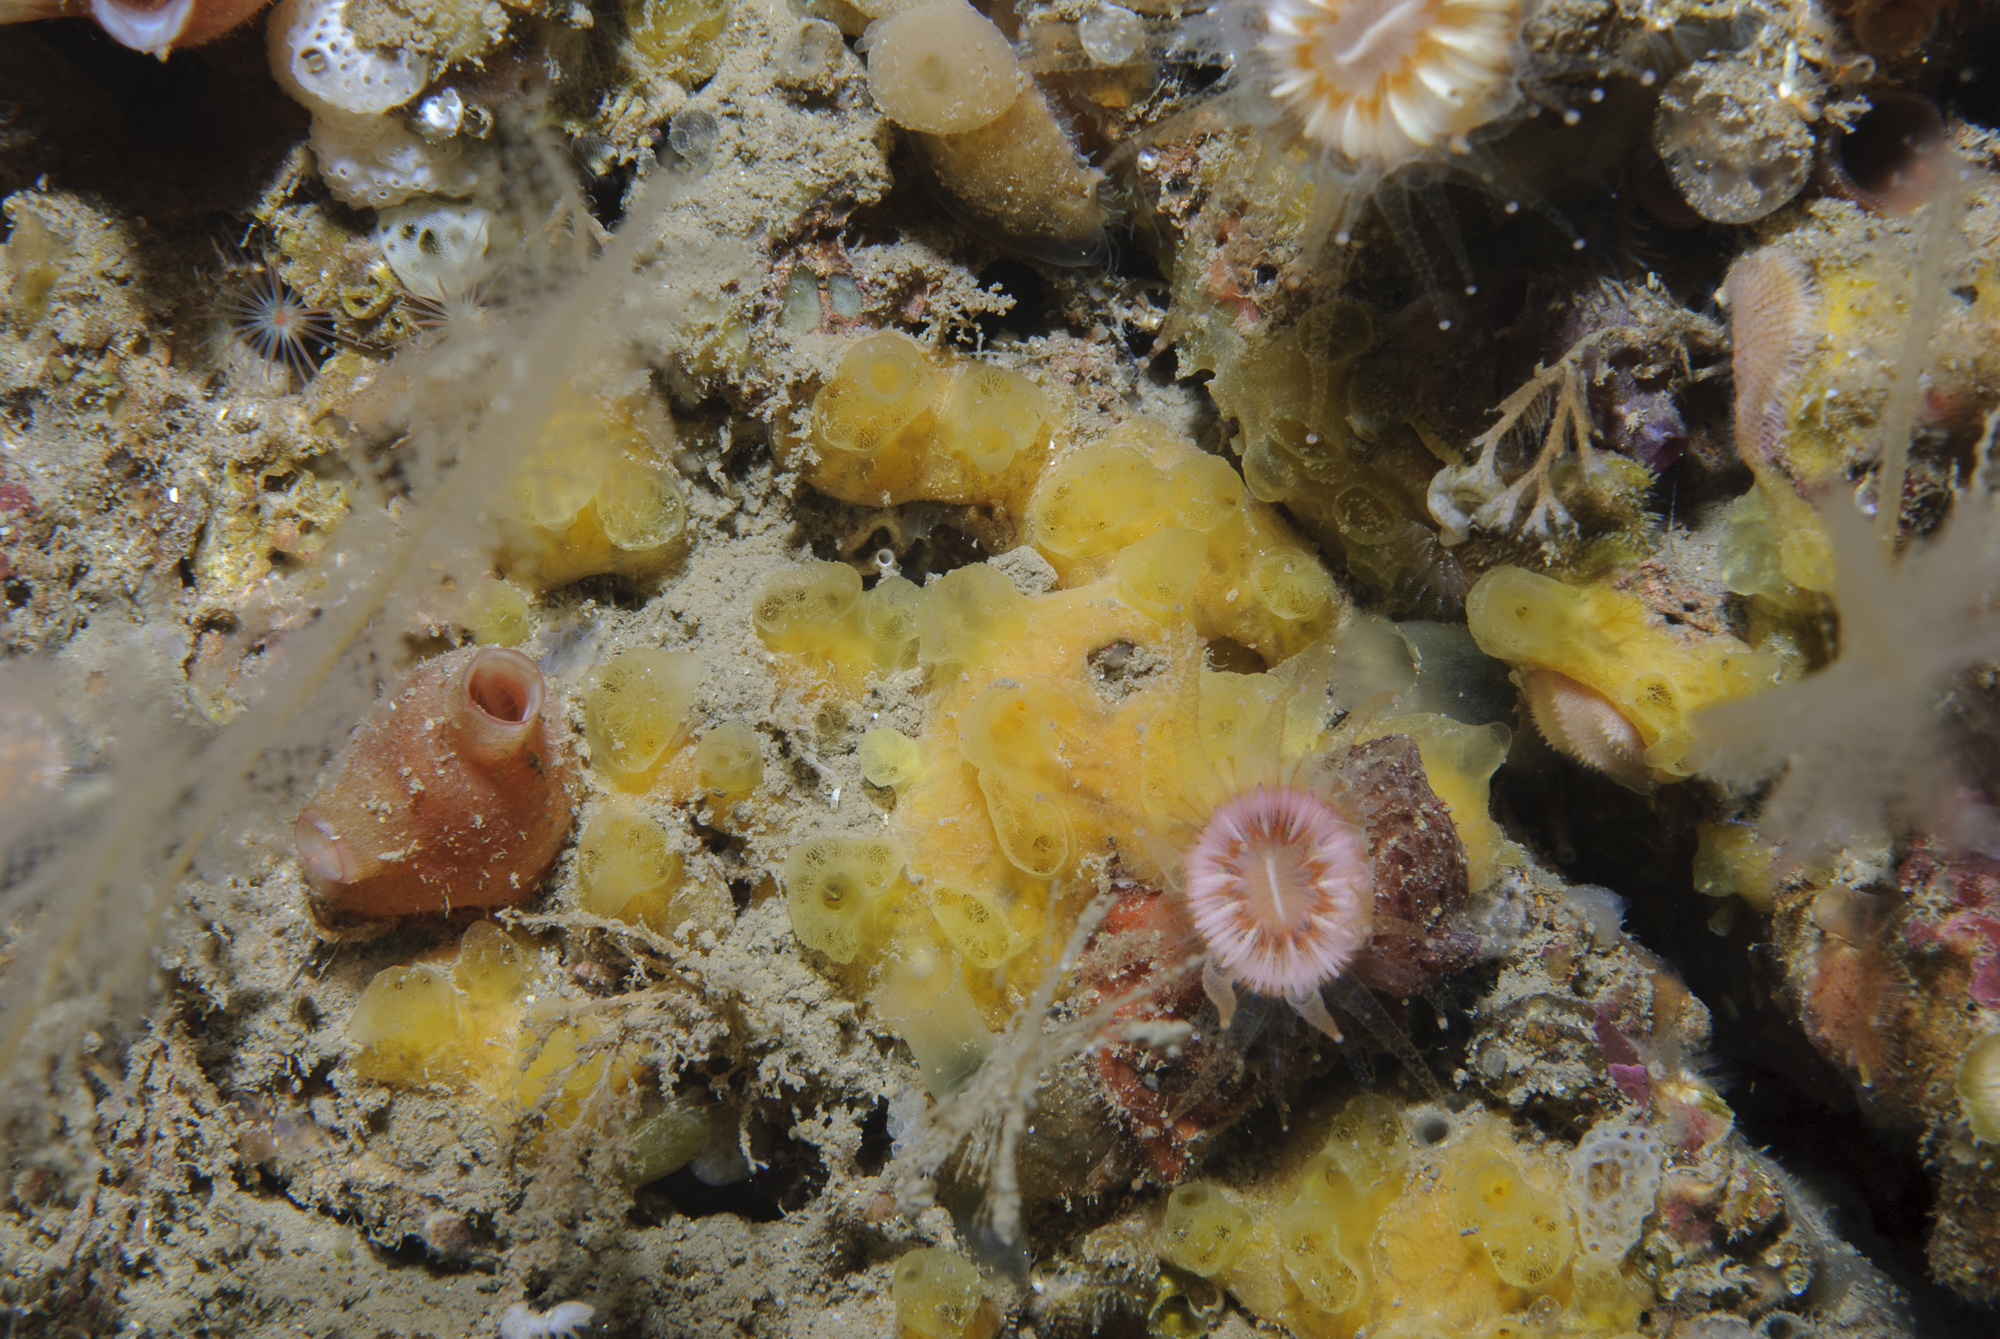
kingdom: Animalia
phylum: Porifera
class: Demospongiae
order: Poecilosclerida
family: Hymedesmiidae
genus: Hymedesmia
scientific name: Hymedesmia rathlinia
